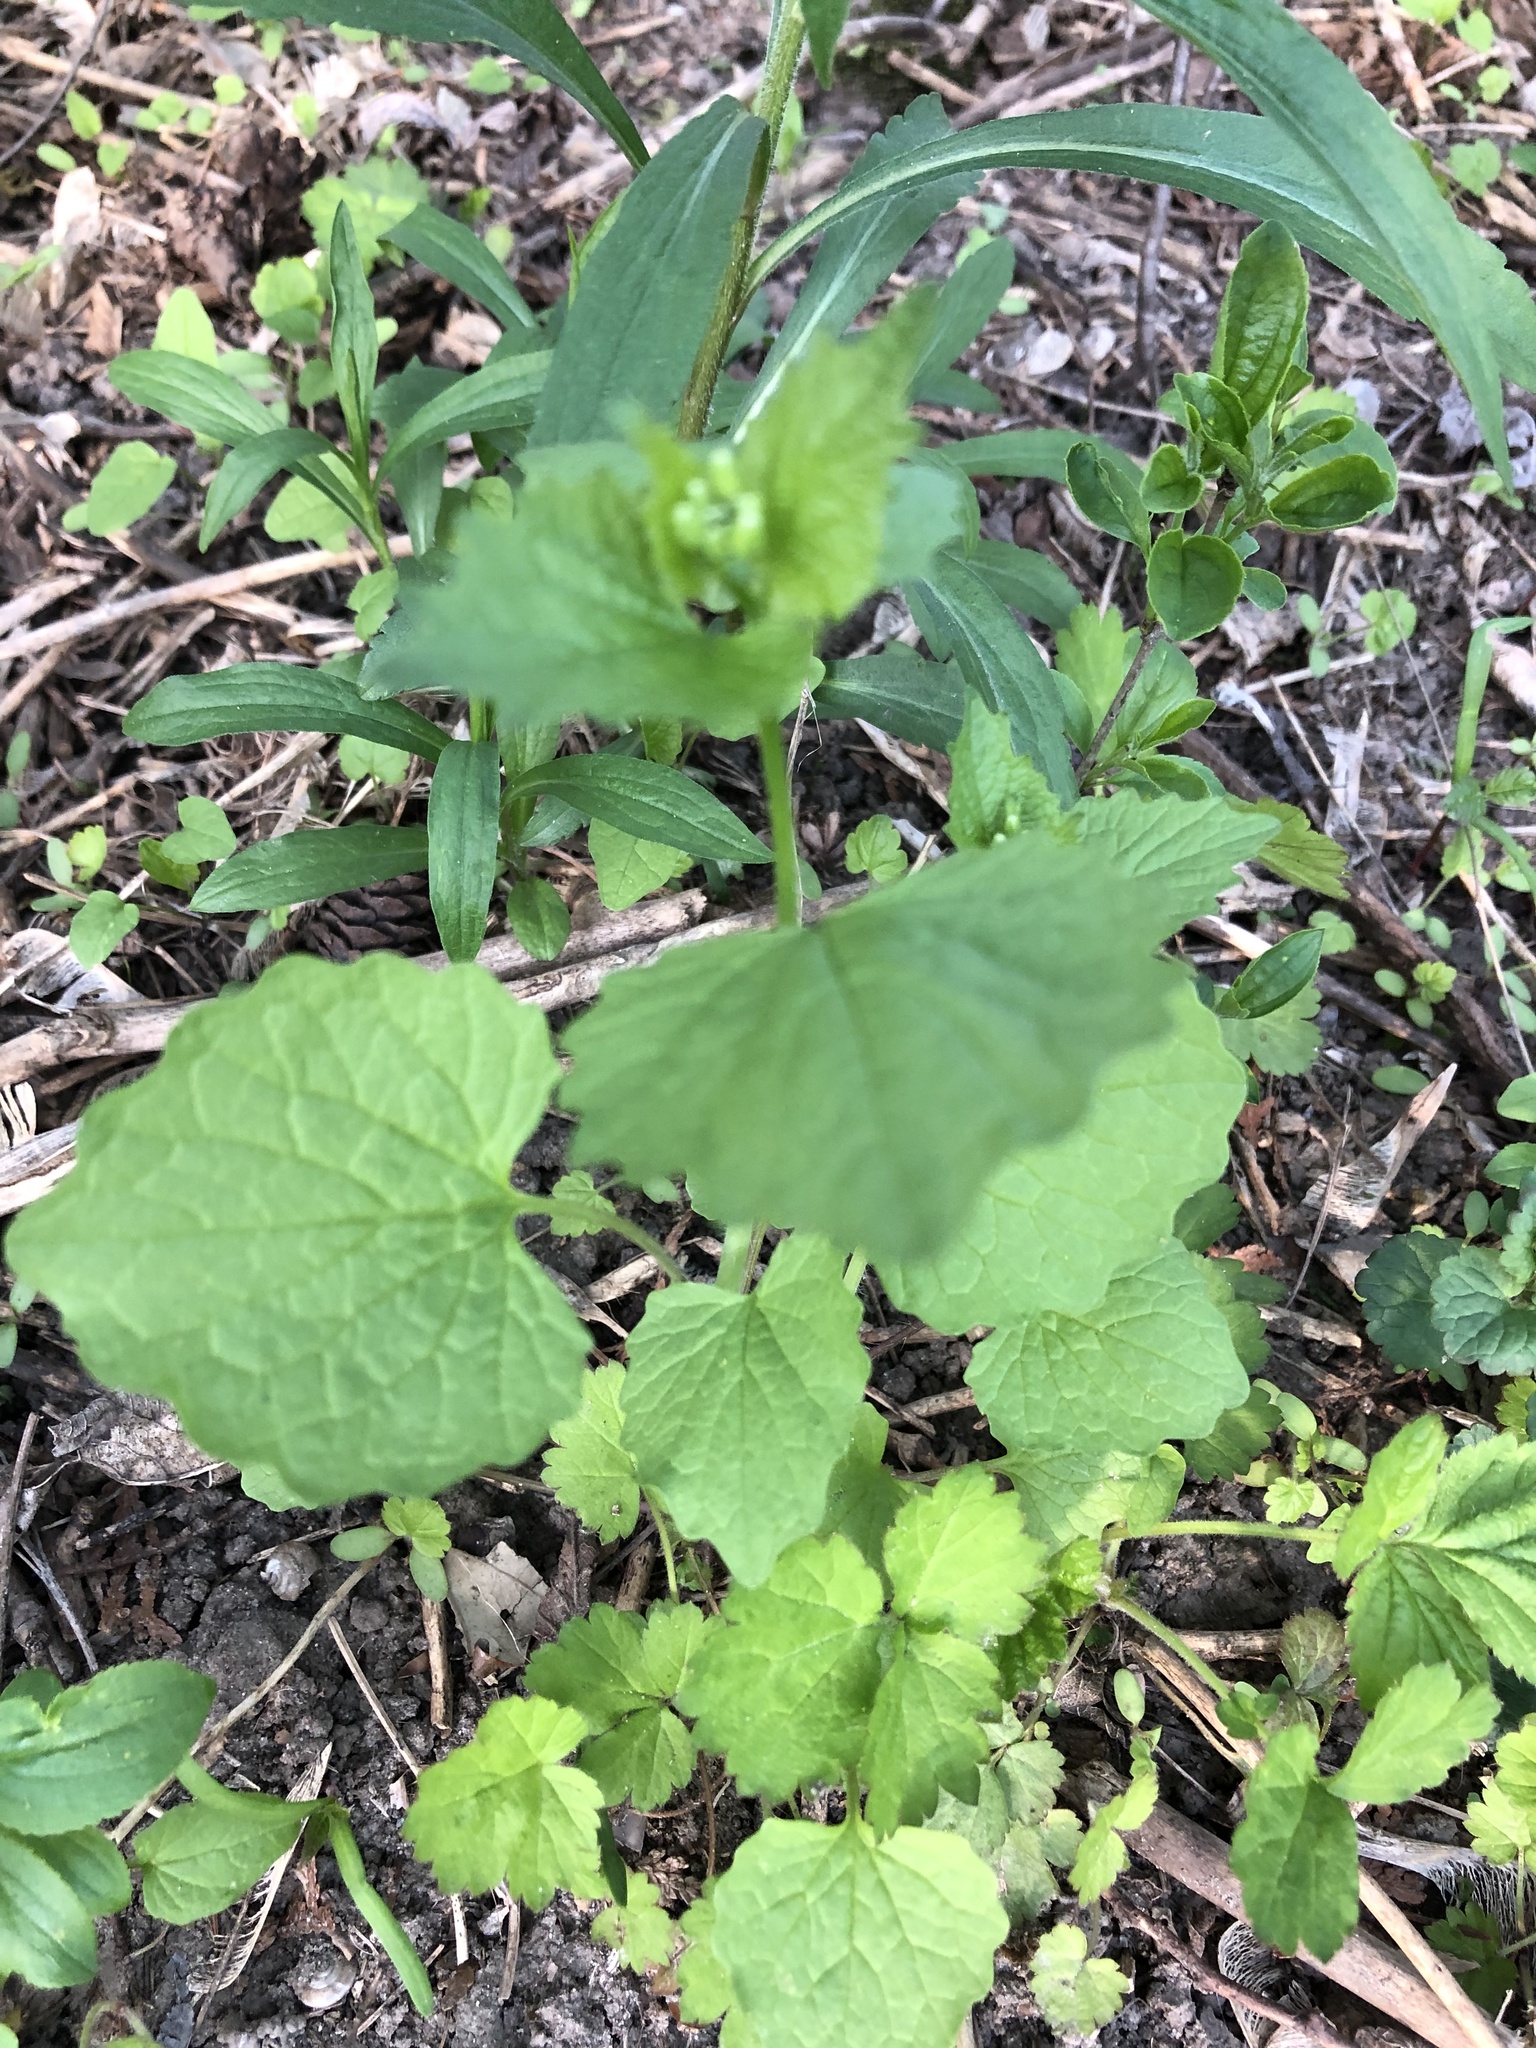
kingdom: Plantae
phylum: Tracheophyta
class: Magnoliopsida
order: Brassicales
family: Brassicaceae
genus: Alliaria
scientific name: Alliaria petiolata
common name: Garlic mustard
